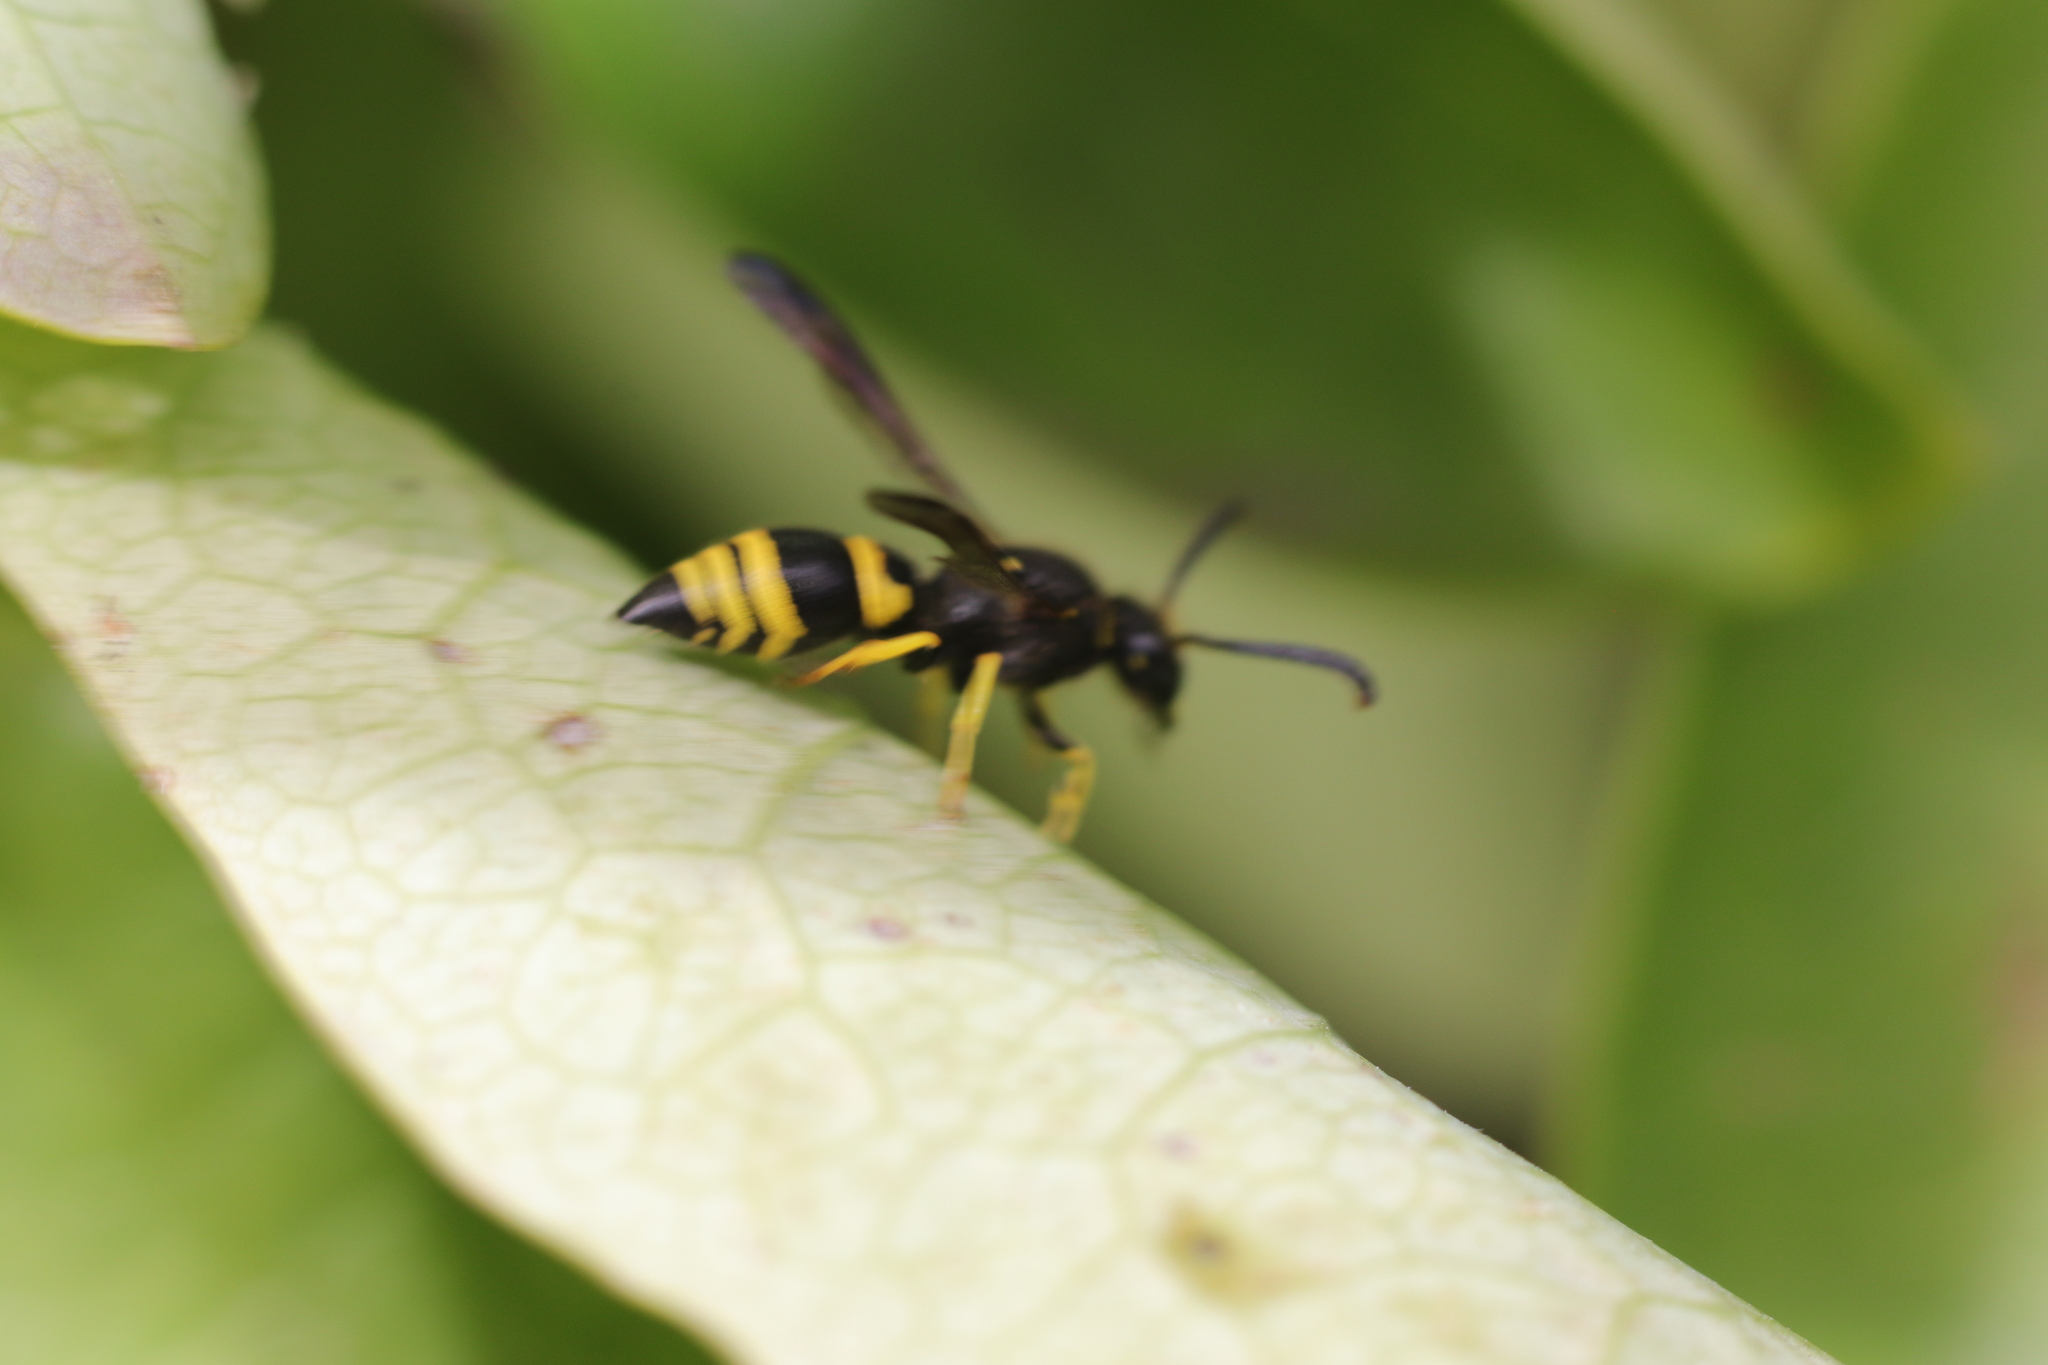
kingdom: Animalia
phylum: Arthropoda
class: Insecta
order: Hymenoptera
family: Vespidae
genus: Ancistrocerus
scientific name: Ancistrocerus gazella
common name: European tube wasp
